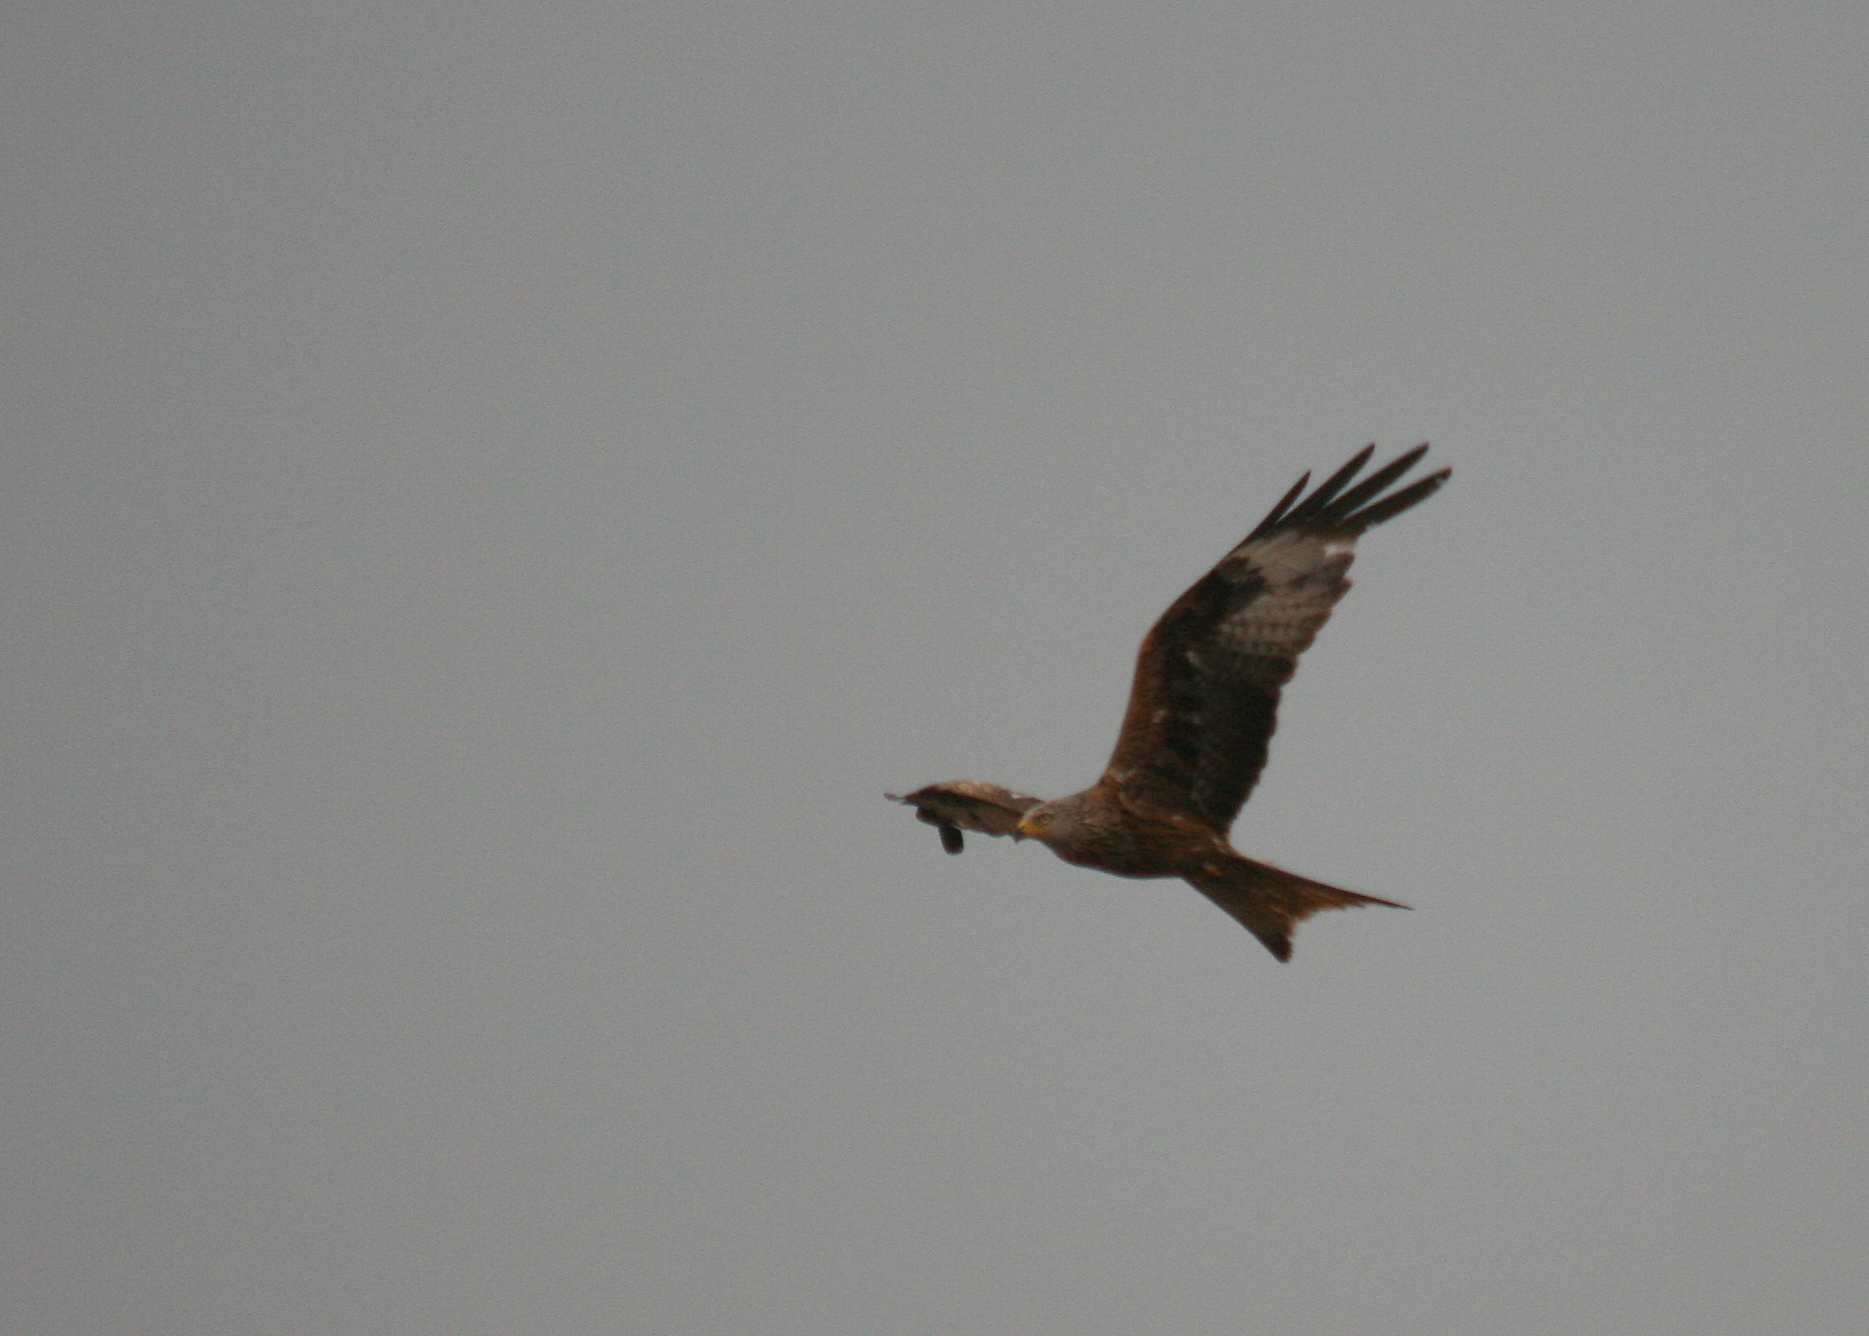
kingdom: Animalia
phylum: Chordata
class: Aves
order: Accipitriformes
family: Accipitridae
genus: Milvus
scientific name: Milvus milvus
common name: Red kite
